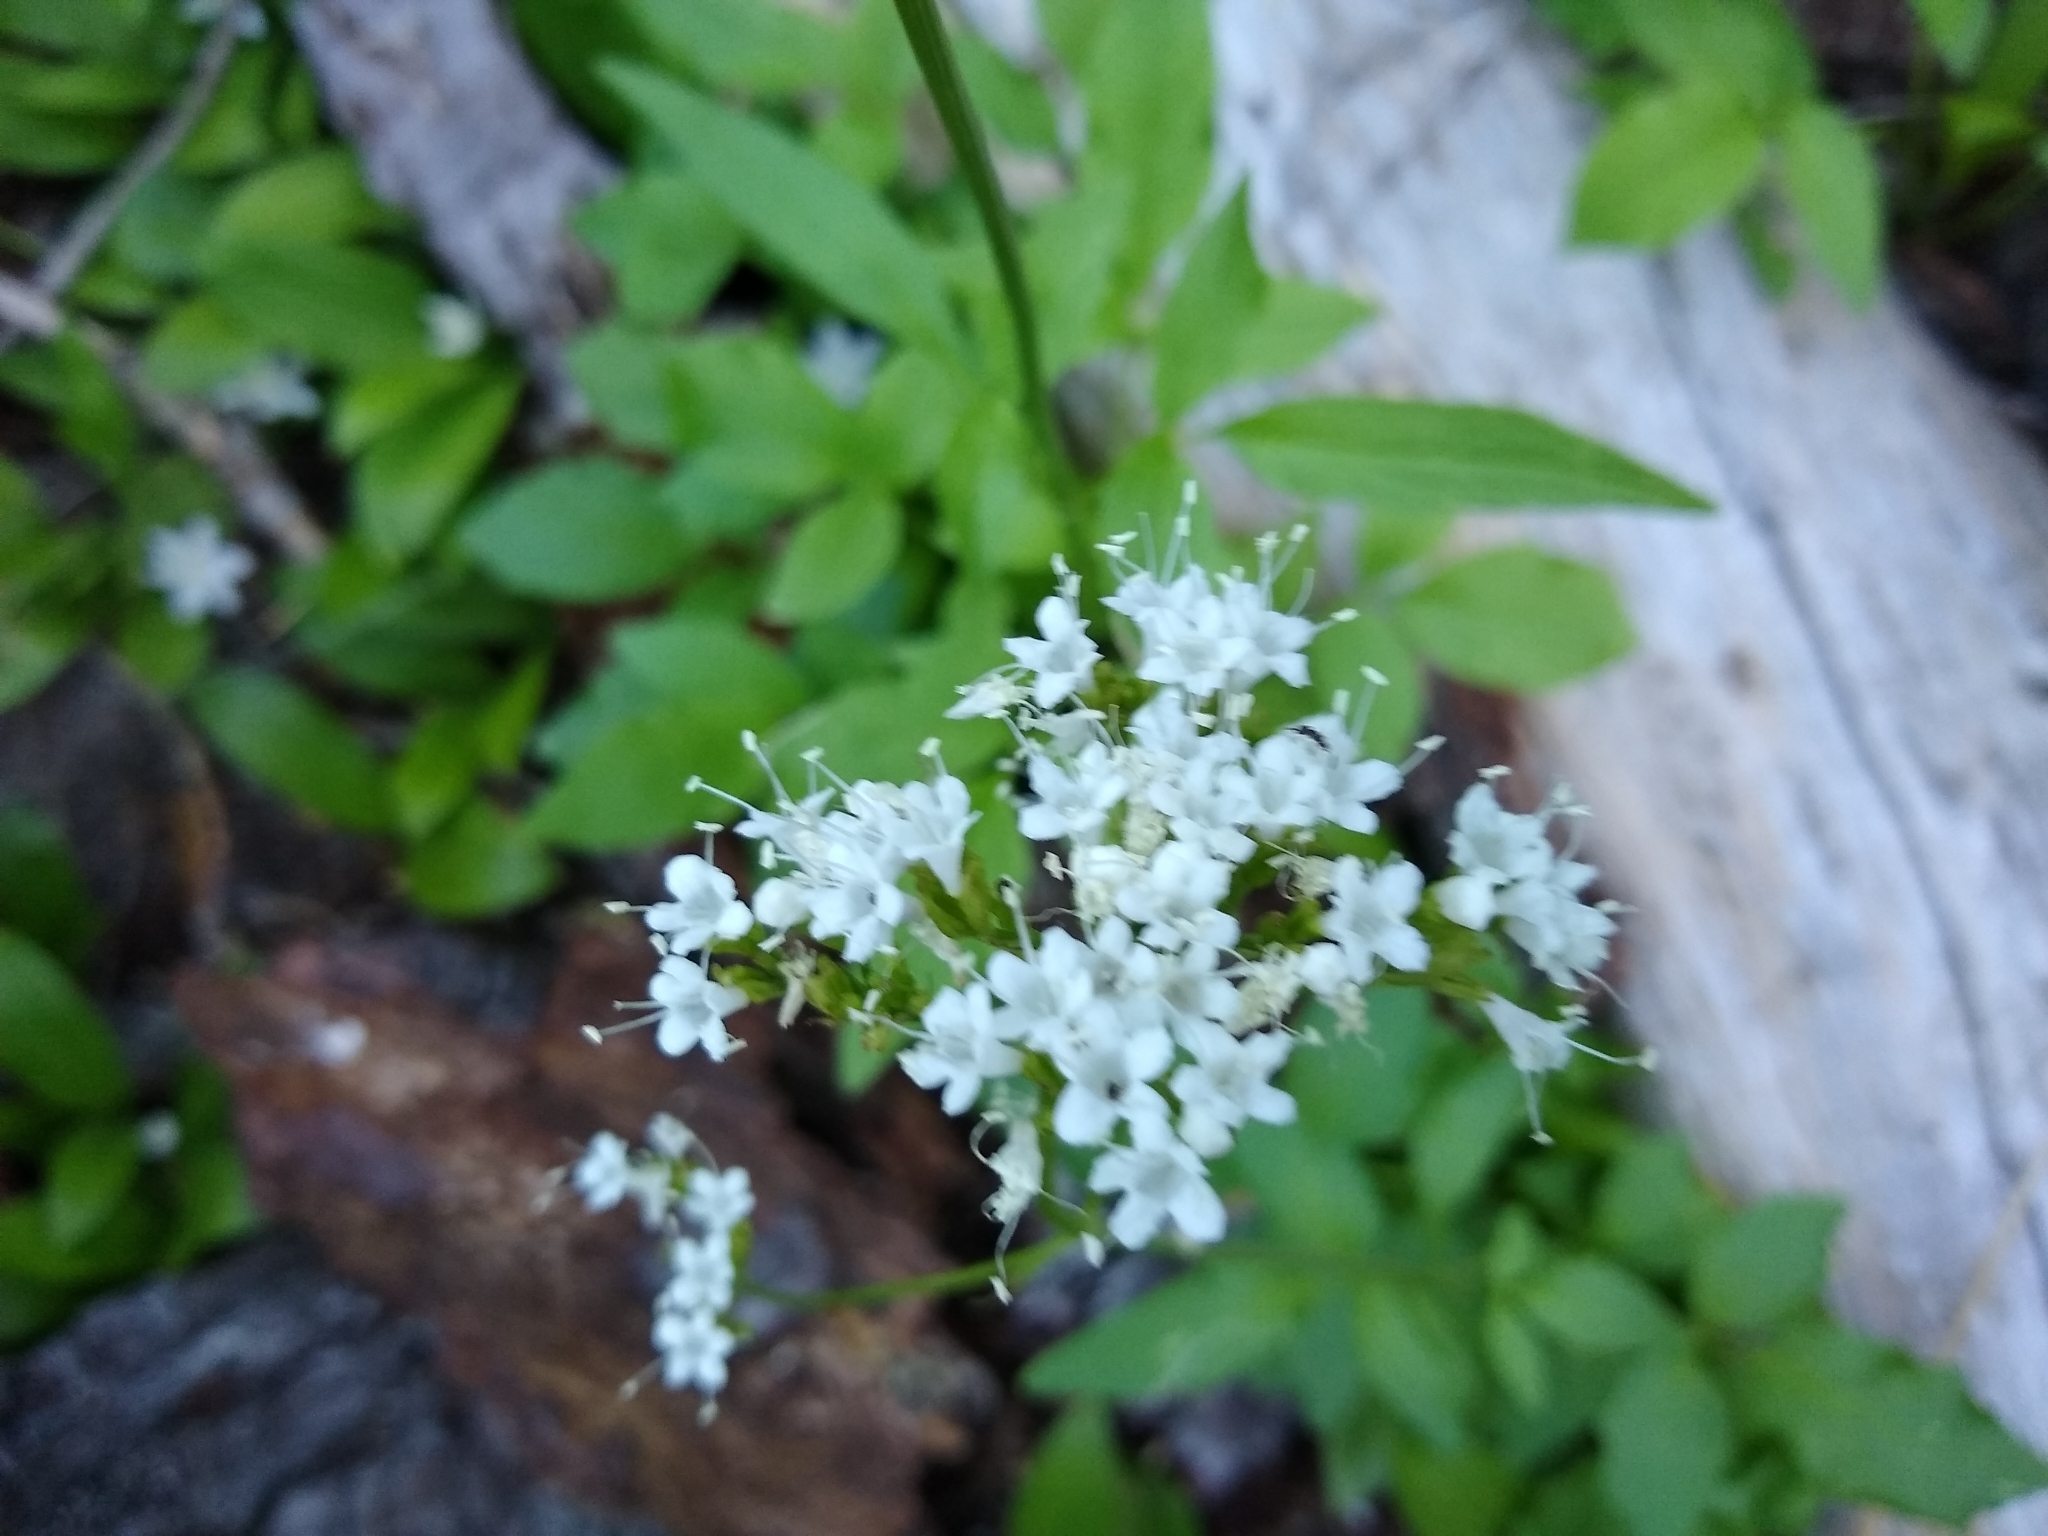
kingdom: Plantae
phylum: Tracheophyta
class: Magnoliopsida
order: Dipsacales
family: Caprifoliaceae
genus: Valeriana
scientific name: Valeriana sitchensis
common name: Pacific valerian
